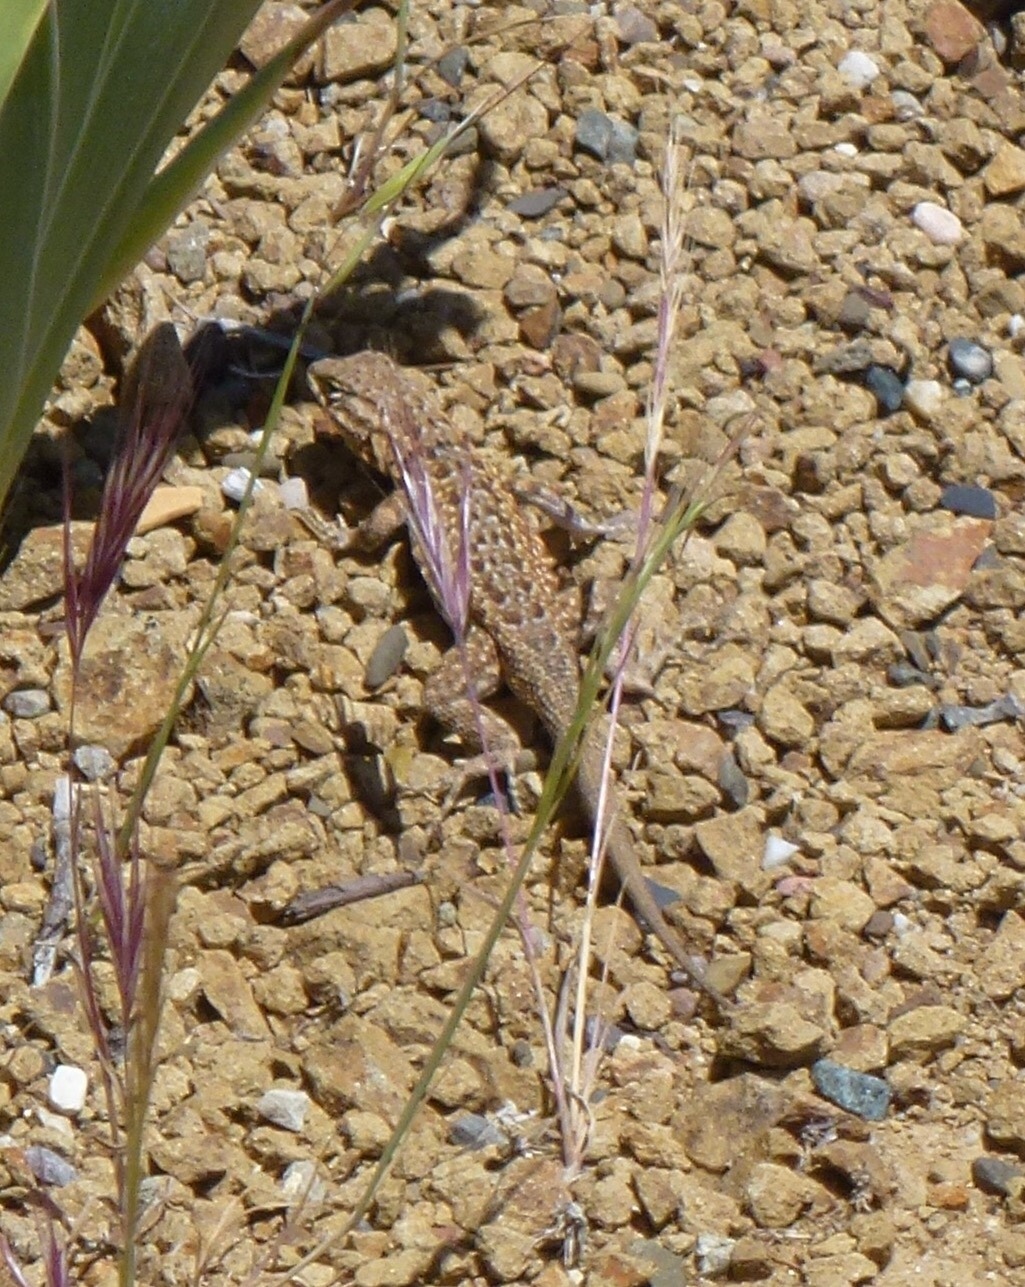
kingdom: Animalia
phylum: Chordata
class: Squamata
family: Phrynosomatidae
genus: Uta
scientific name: Uta stansburiana
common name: Side-blotched lizard
